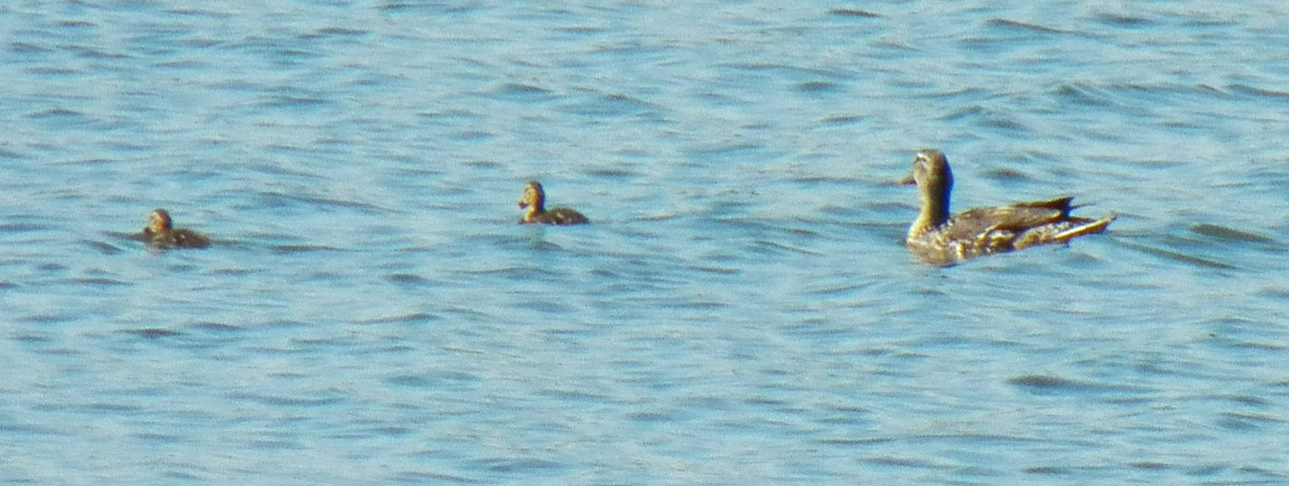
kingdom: Animalia
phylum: Chordata
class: Aves
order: Anseriformes
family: Anatidae
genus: Anas
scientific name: Anas platyrhynchos
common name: Mallard
